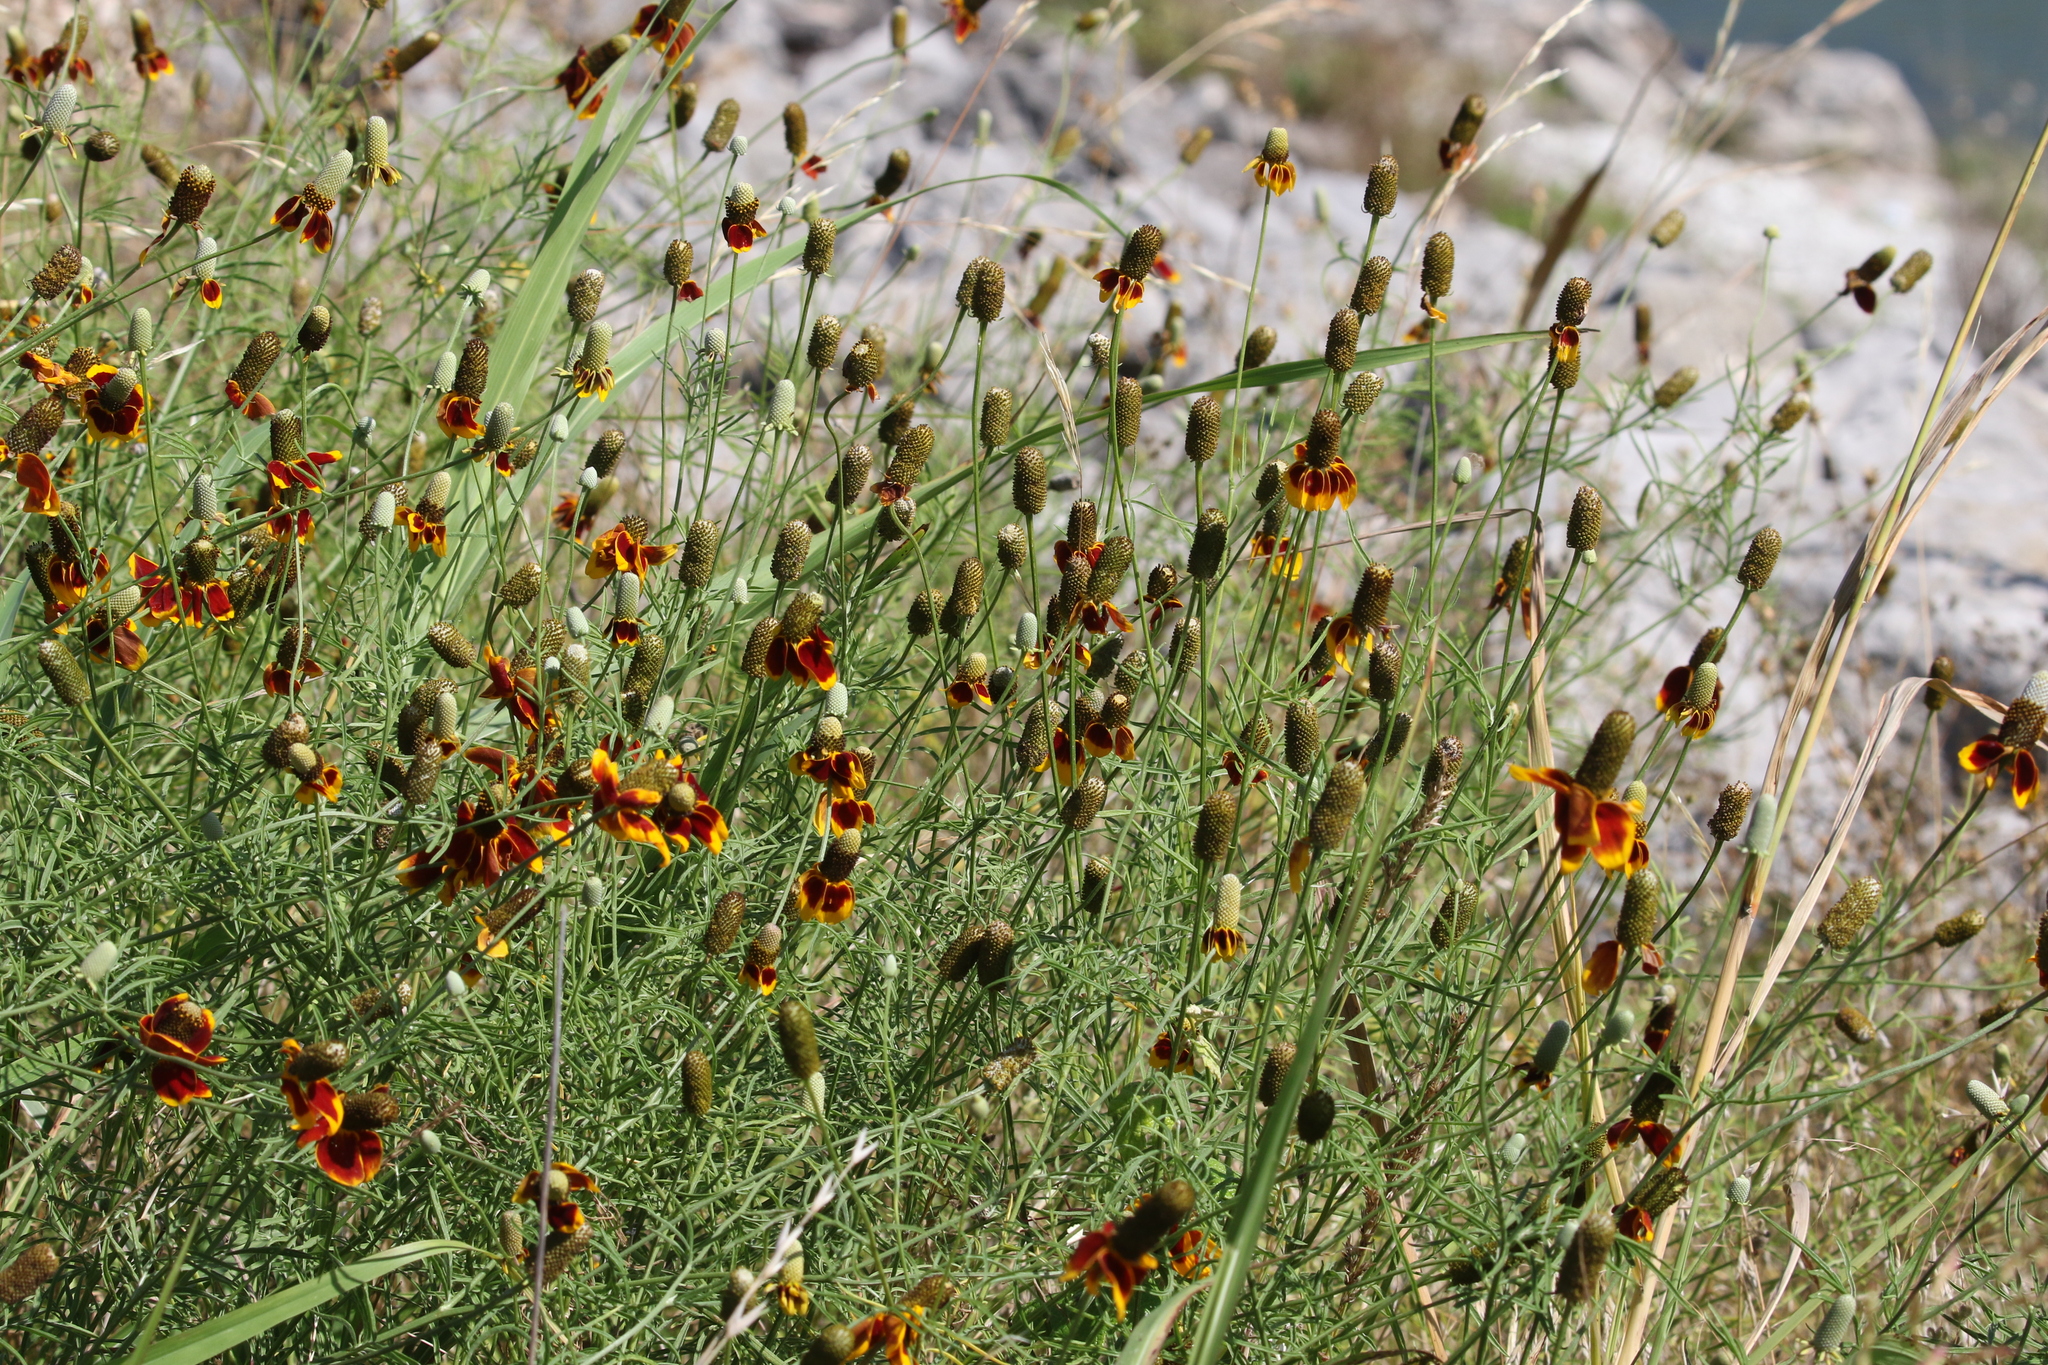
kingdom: Plantae
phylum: Tracheophyta
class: Magnoliopsida
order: Asterales
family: Asteraceae
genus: Ratibida
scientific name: Ratibida columnifera
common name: Prairie coneflower
